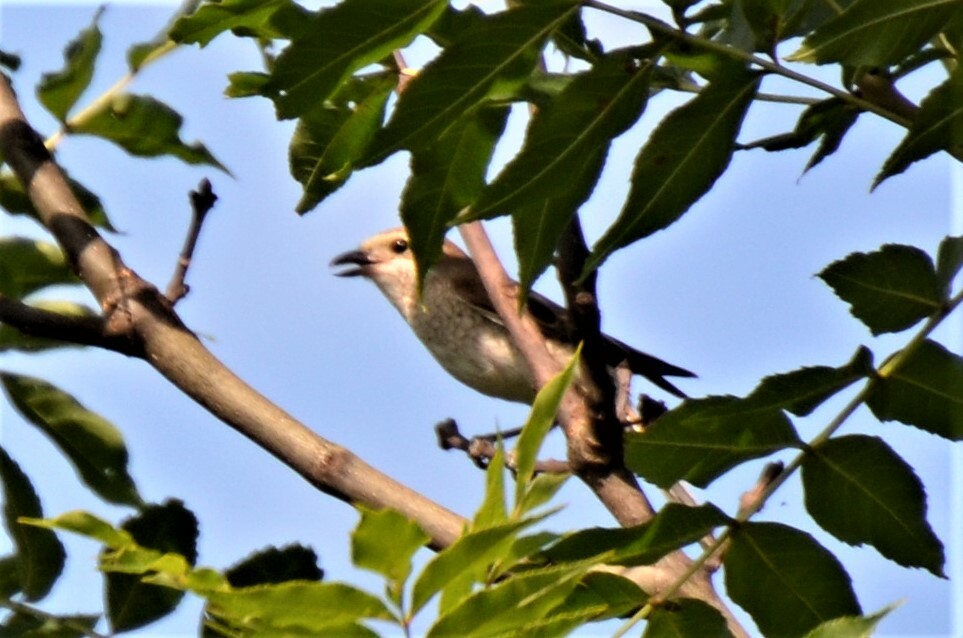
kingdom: Animalia
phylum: Chordata
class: Aves
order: Passeriformes
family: Laniidae
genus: Lanius
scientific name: Lanius collurio
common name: Red-backed shrike
